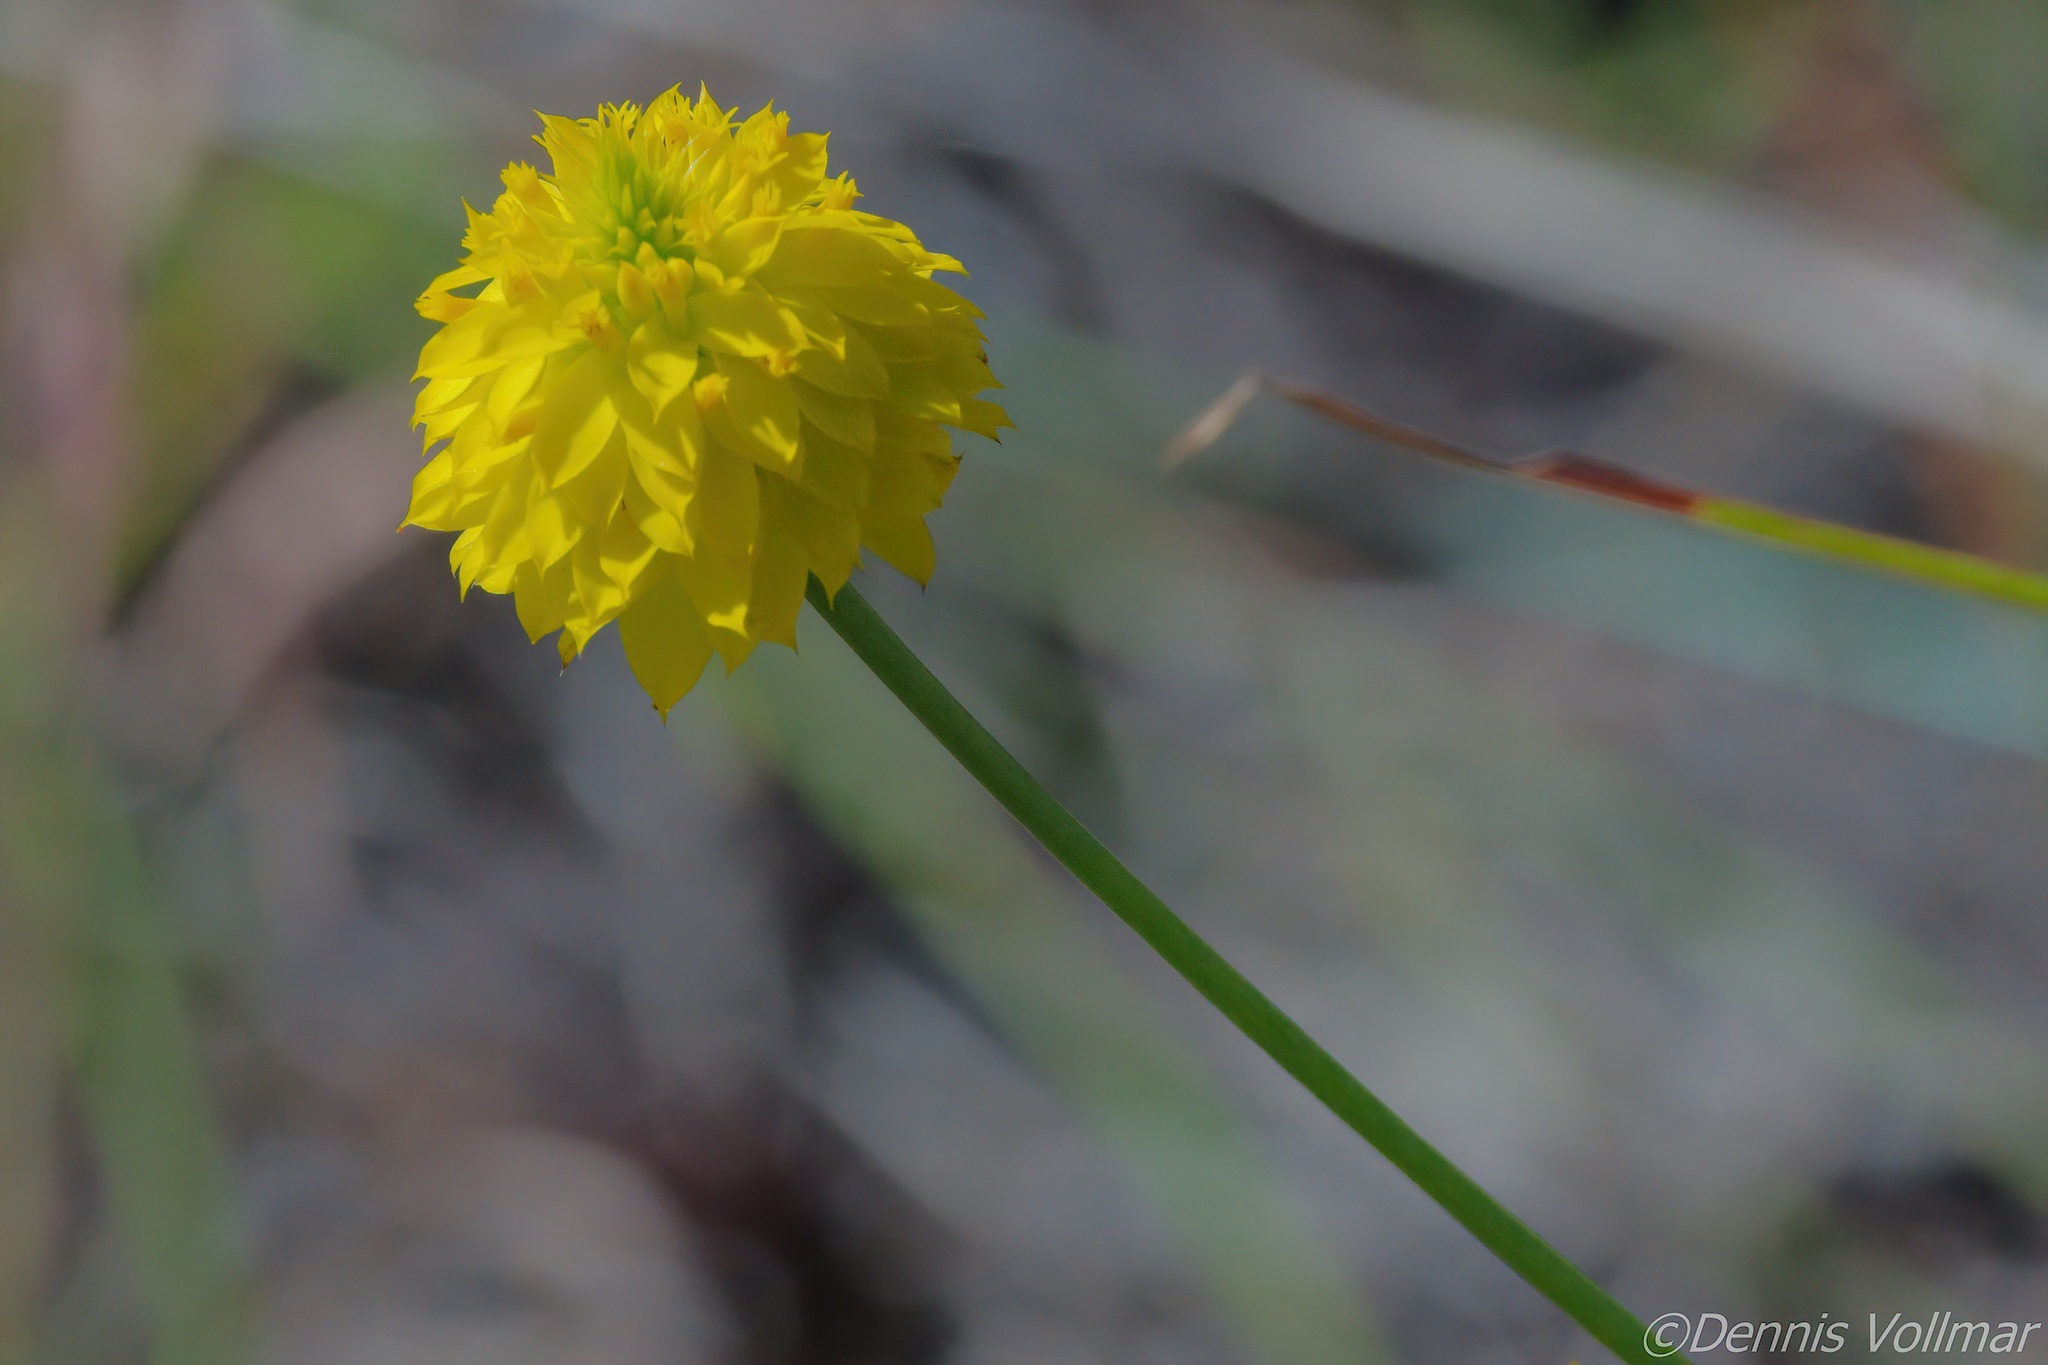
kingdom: Plantae
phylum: Tracheophyta
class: Magnoliopsida
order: Fabales
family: Polygalaceae
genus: Polygala
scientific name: Polygala rugelii
